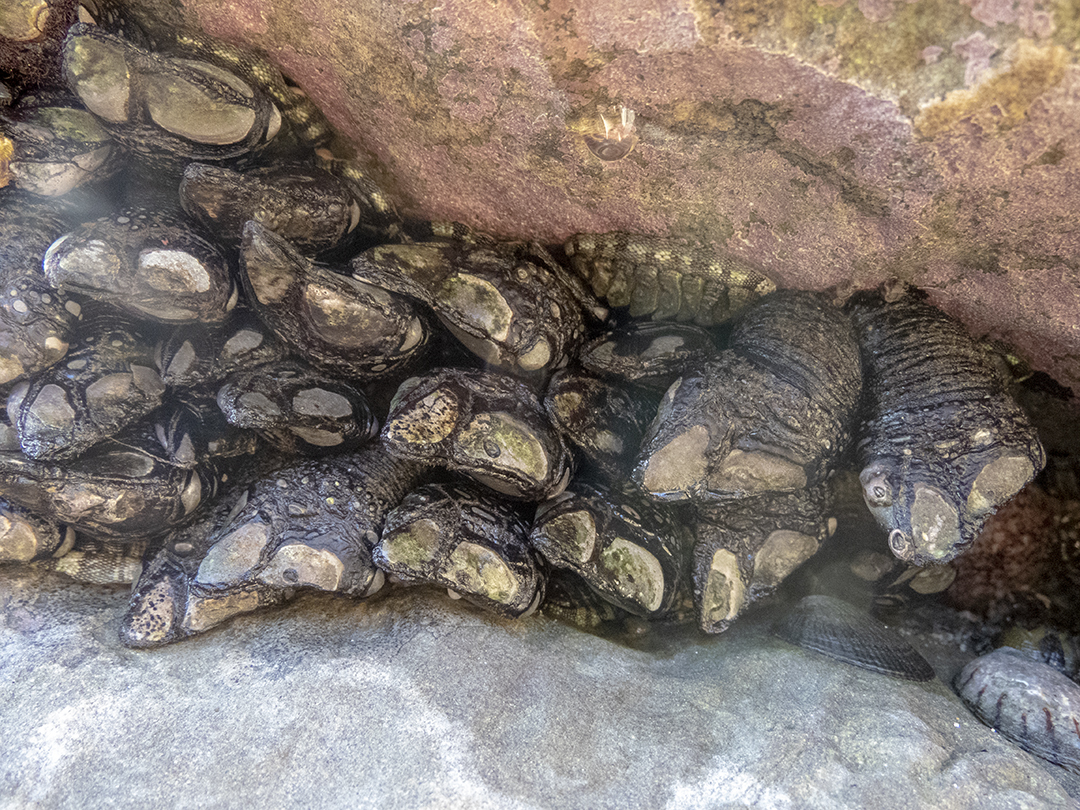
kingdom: Animalia
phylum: Arthropoda
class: Maxillopoda
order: Pedunculata
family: Calanticidae
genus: Calantica
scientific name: Calantica spinosa
